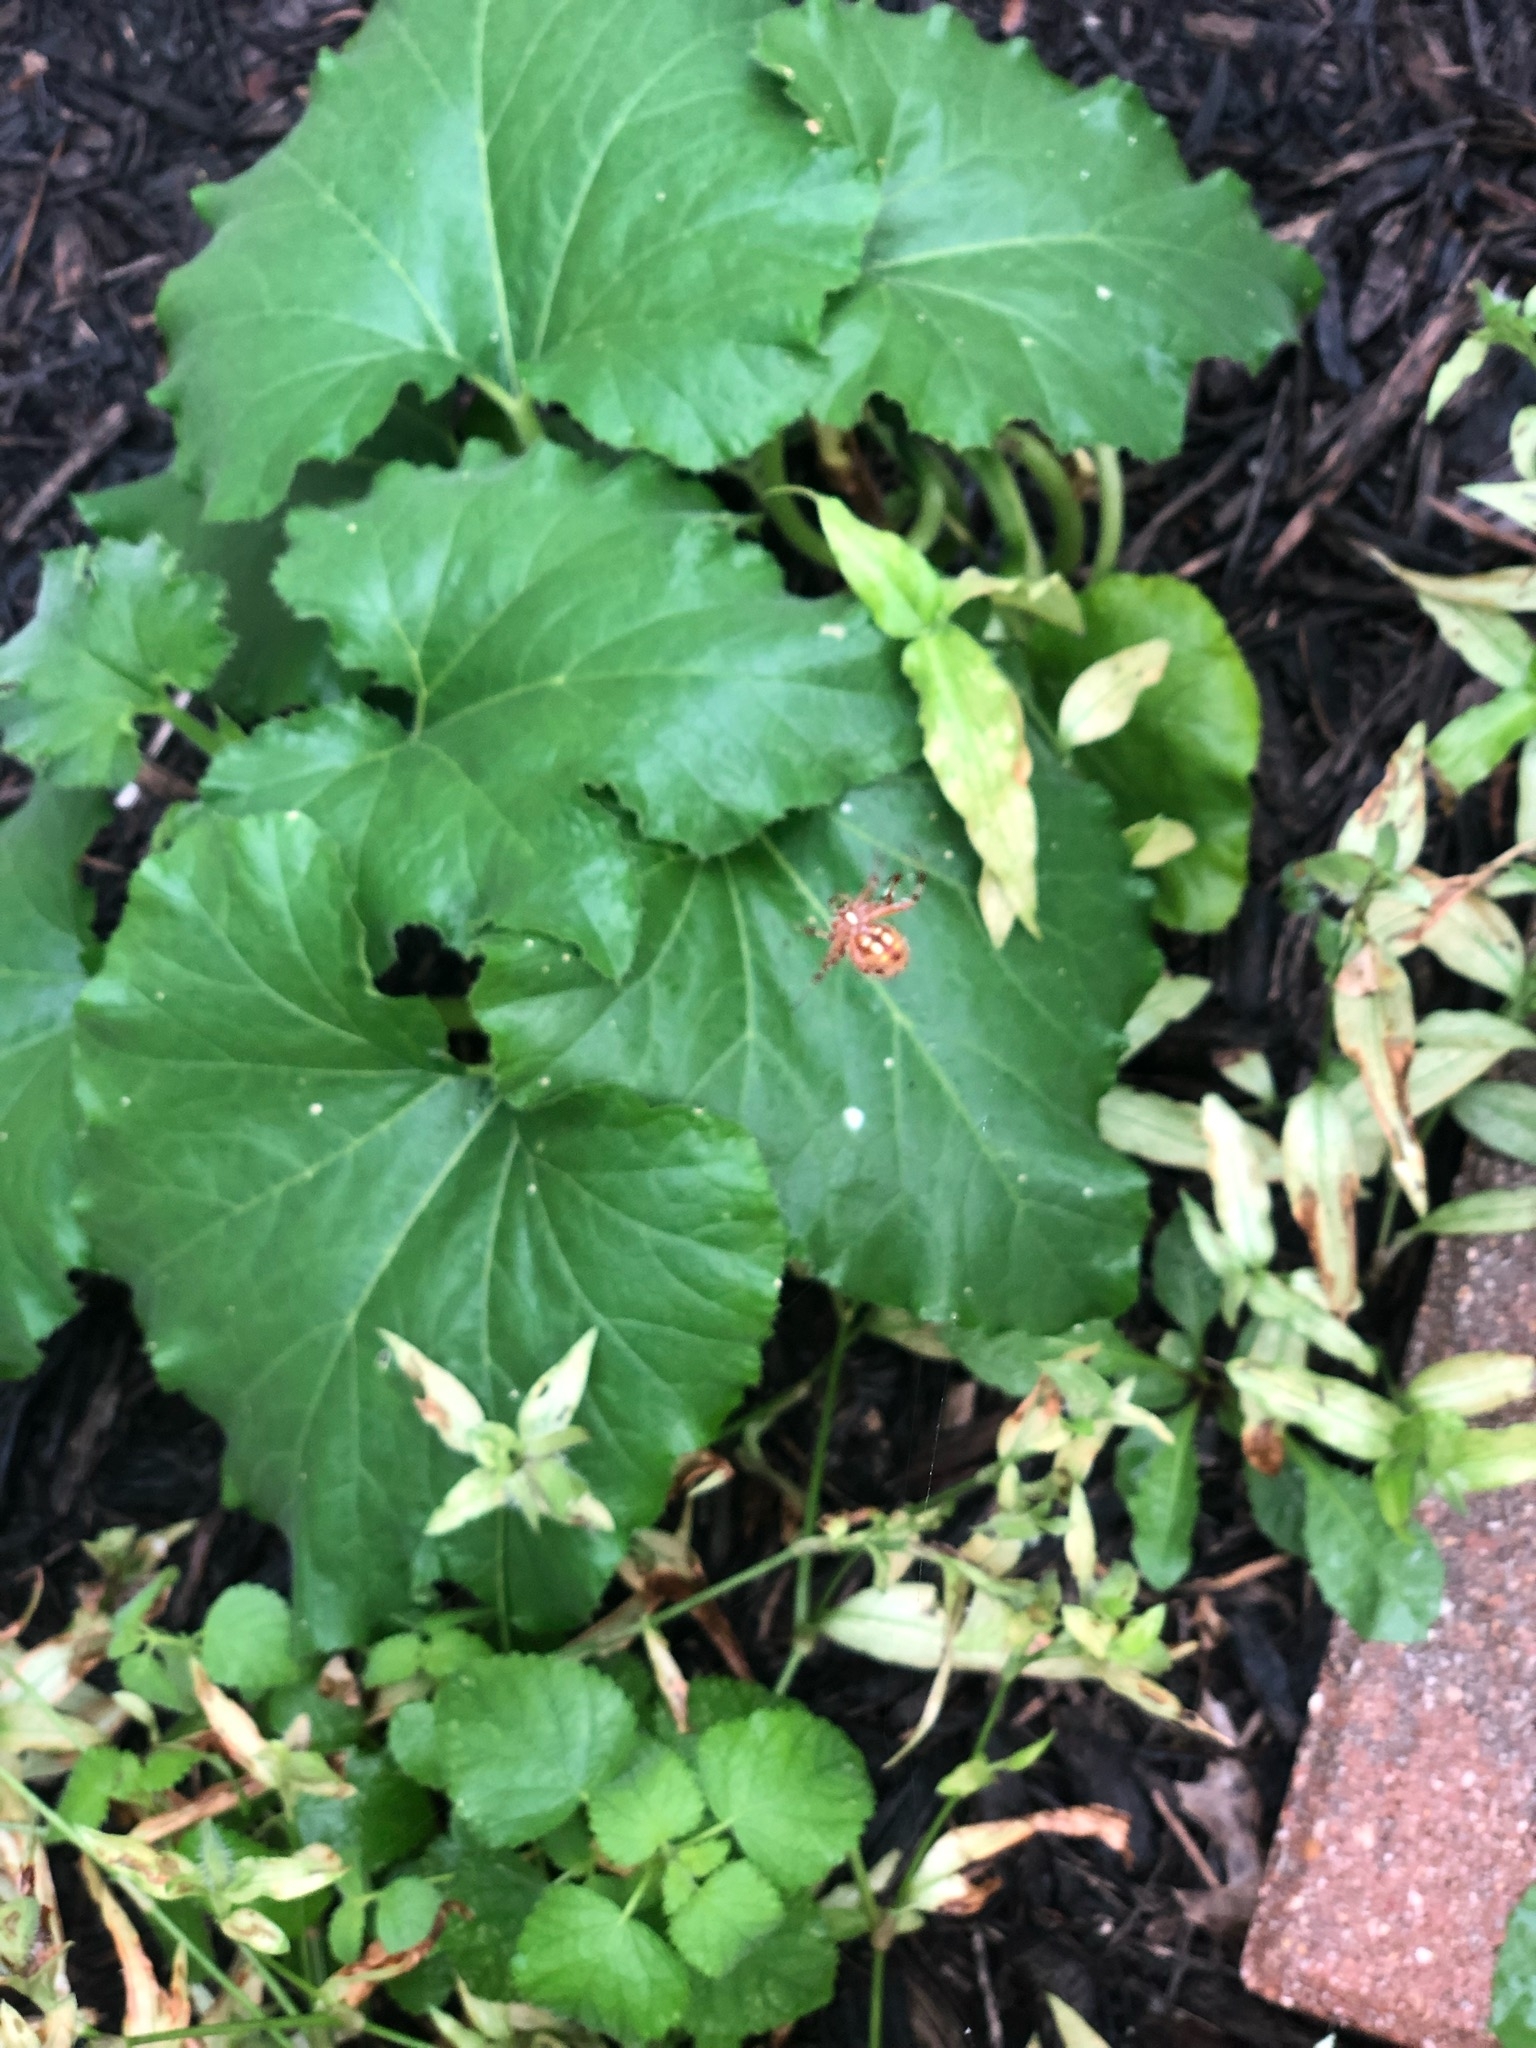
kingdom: Animalia
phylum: Arthropoda
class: Arachnida
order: Araneae
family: Araneidae
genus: Neoscona
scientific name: Neoscona oaxacensis
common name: Orb weavers
